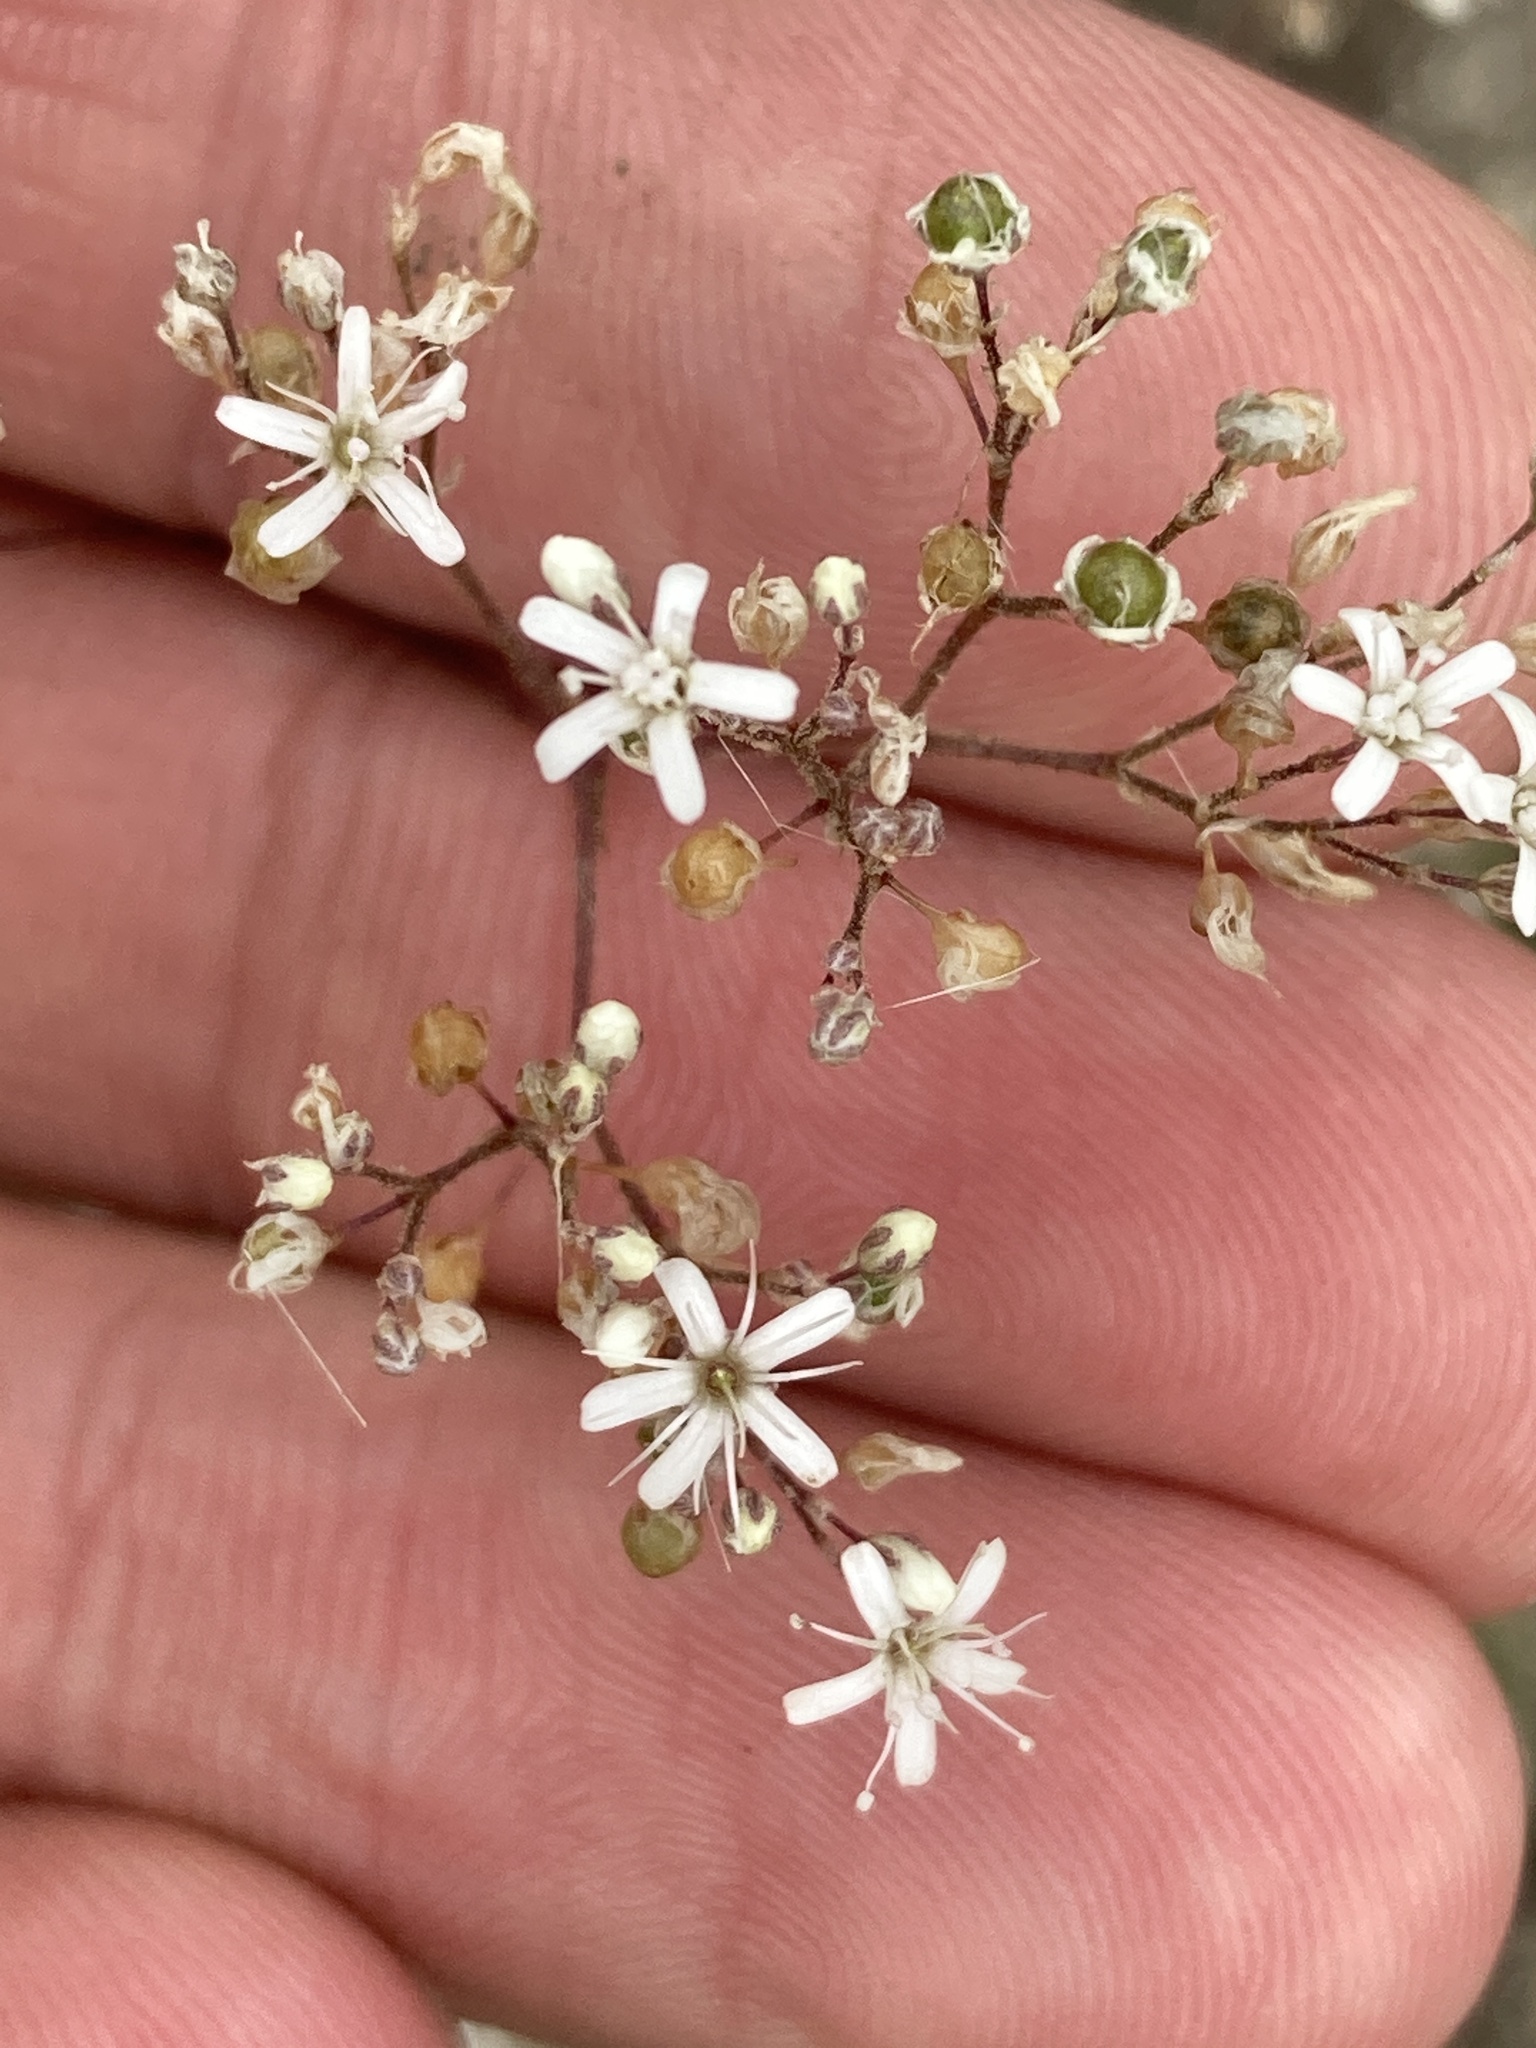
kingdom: Plantae
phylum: Tracheophyta
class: Magnoliopsida
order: Caryophyllales
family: Caryophyllaceae
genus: Gypsophila
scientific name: Gypsophila altissima
